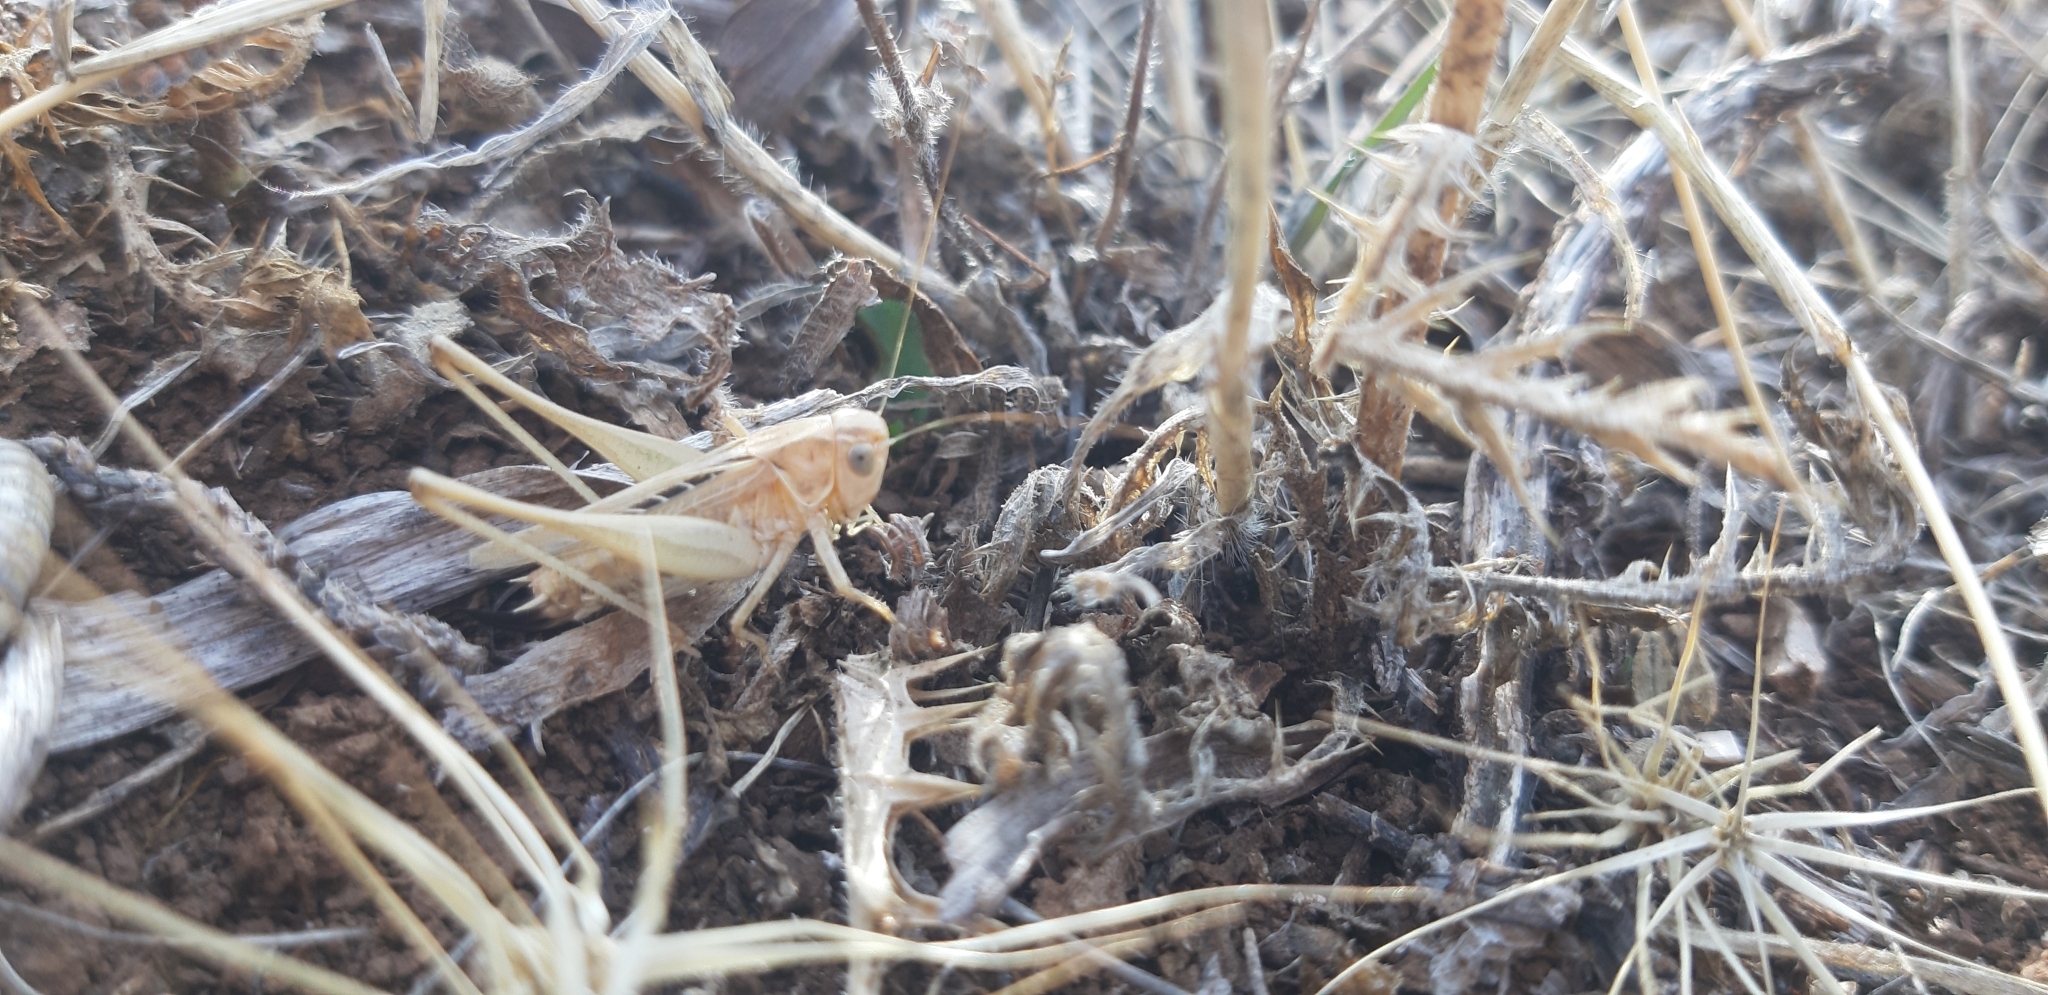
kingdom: Animalia
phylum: Arthropoda
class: Insecta
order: Orthoptera
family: Tettigoniidae
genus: Tessellana
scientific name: Tessellana tessellata
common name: Grasshopper
